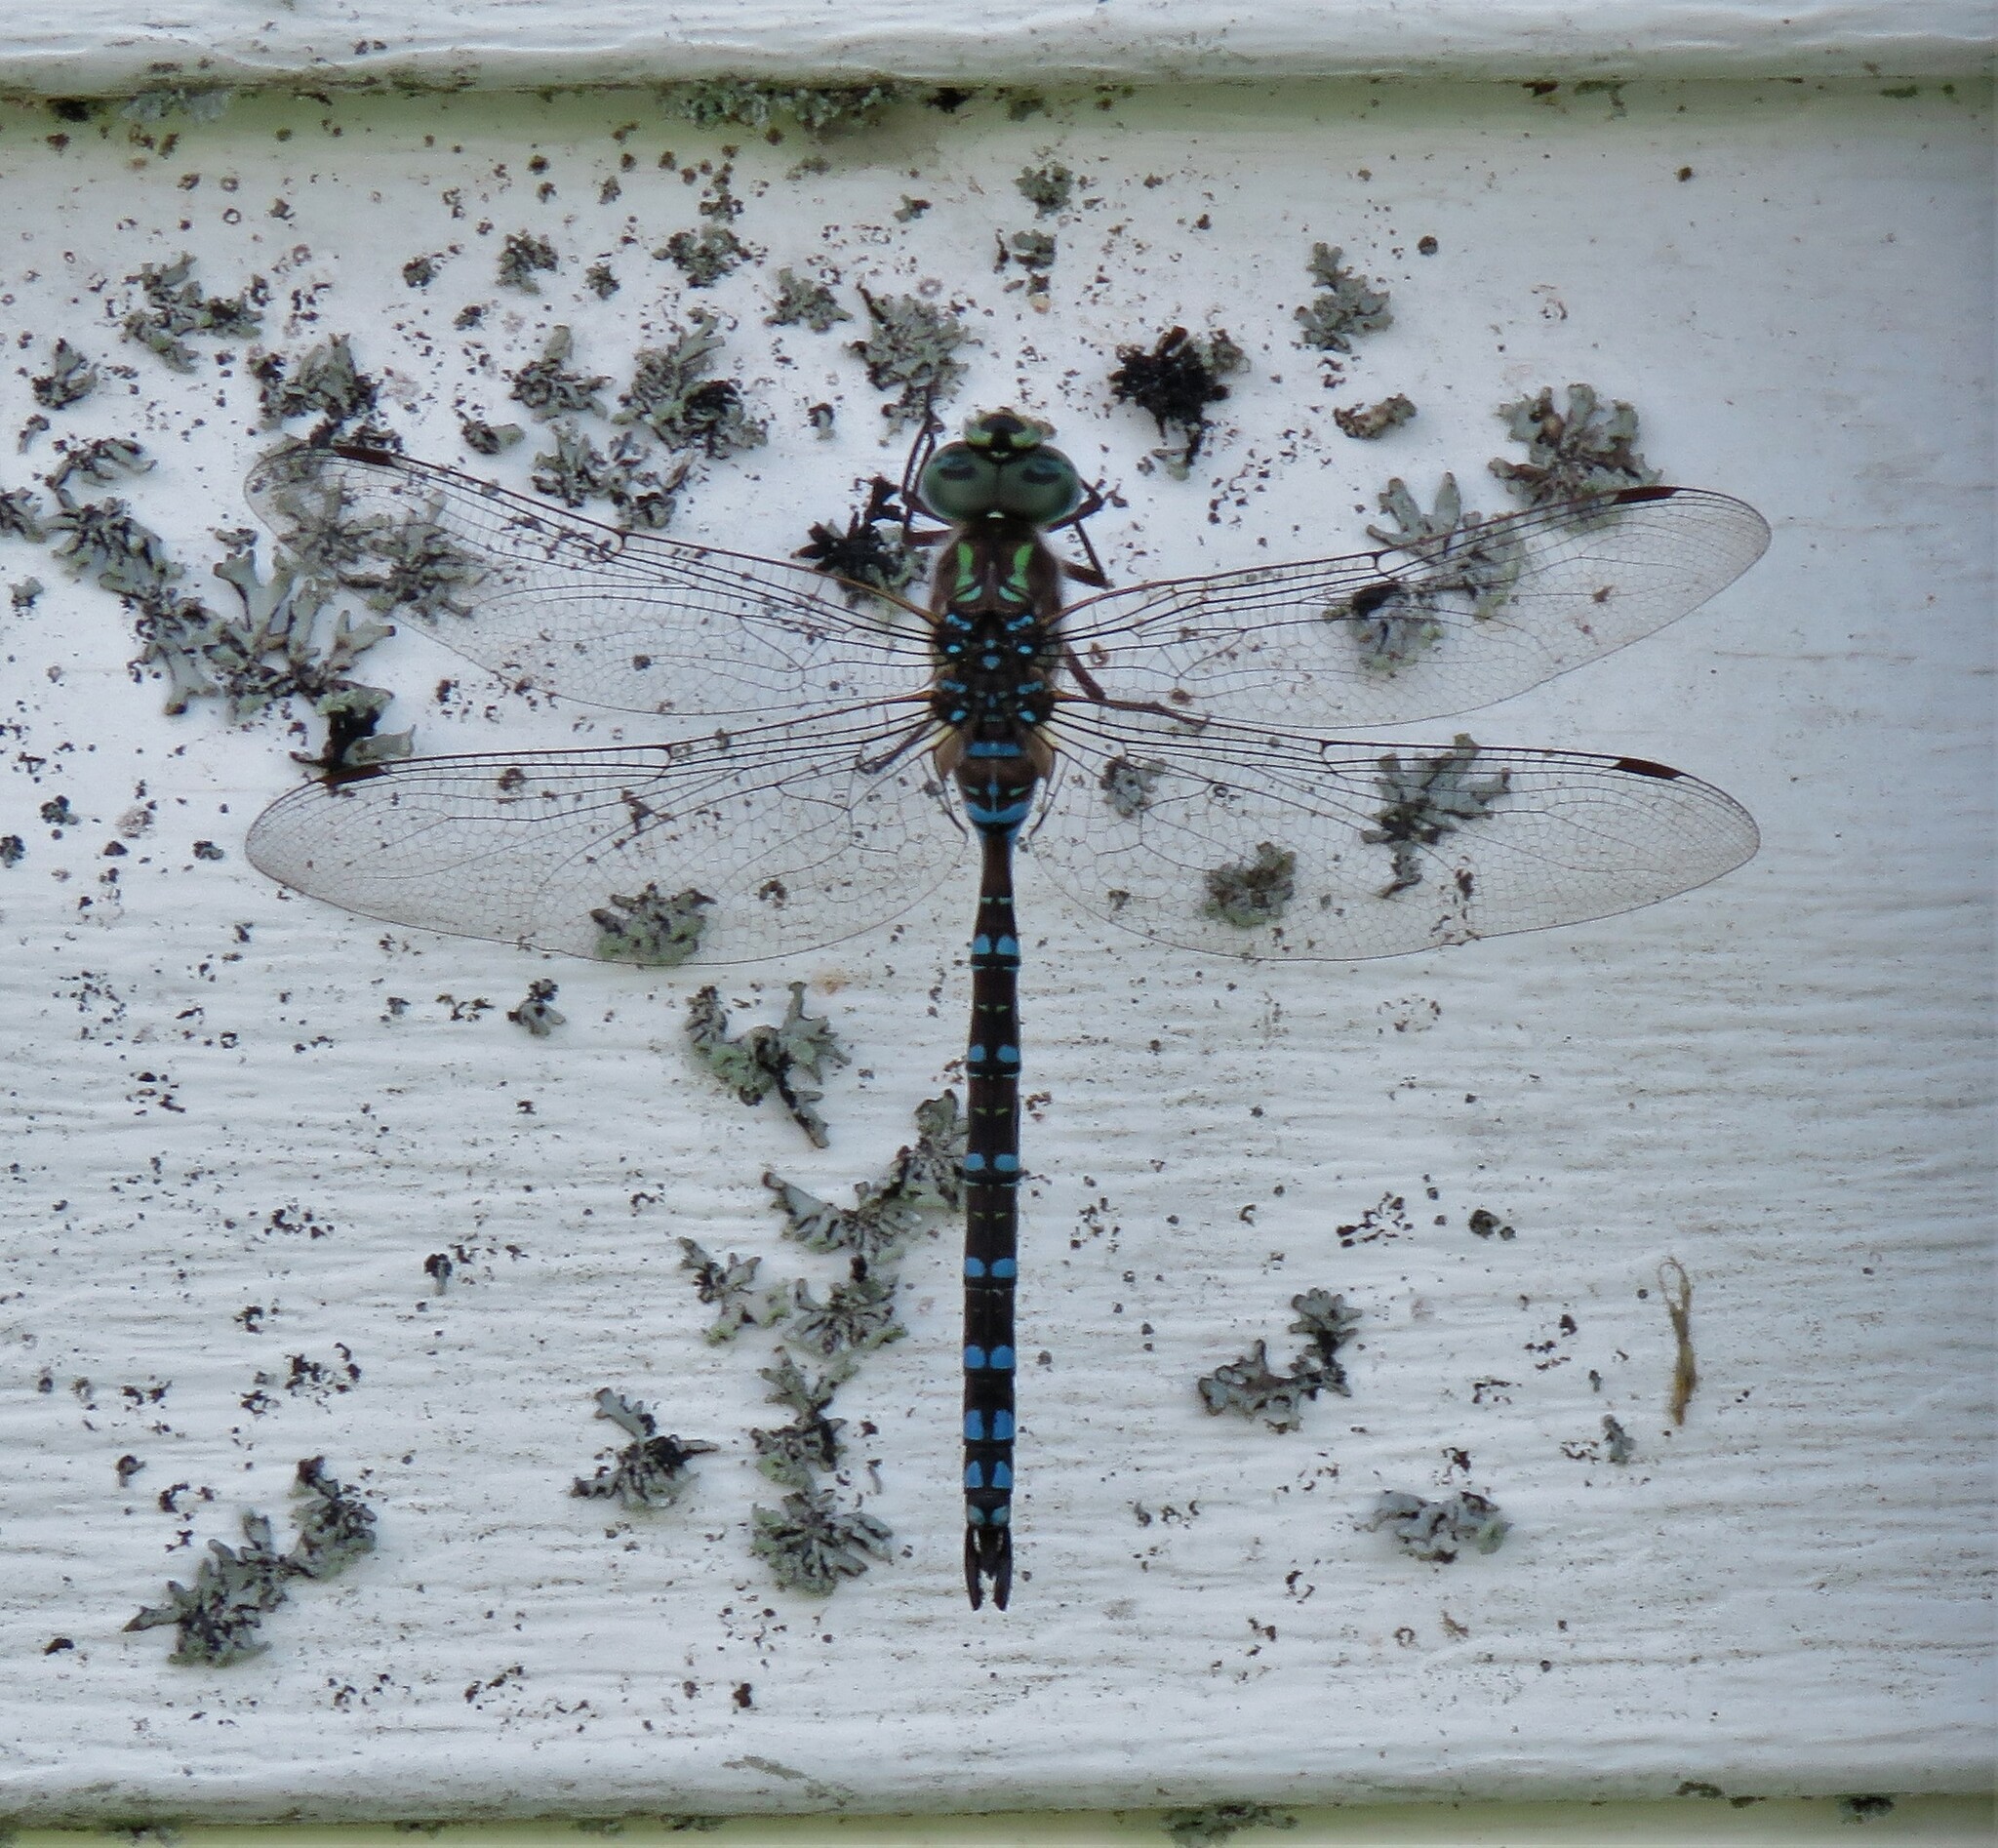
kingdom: Animalia
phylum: Arthropoda
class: Insecta
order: Odonata
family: Aeshnidae
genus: Aeshna
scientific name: Aeshna canadensis
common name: Canada darner
